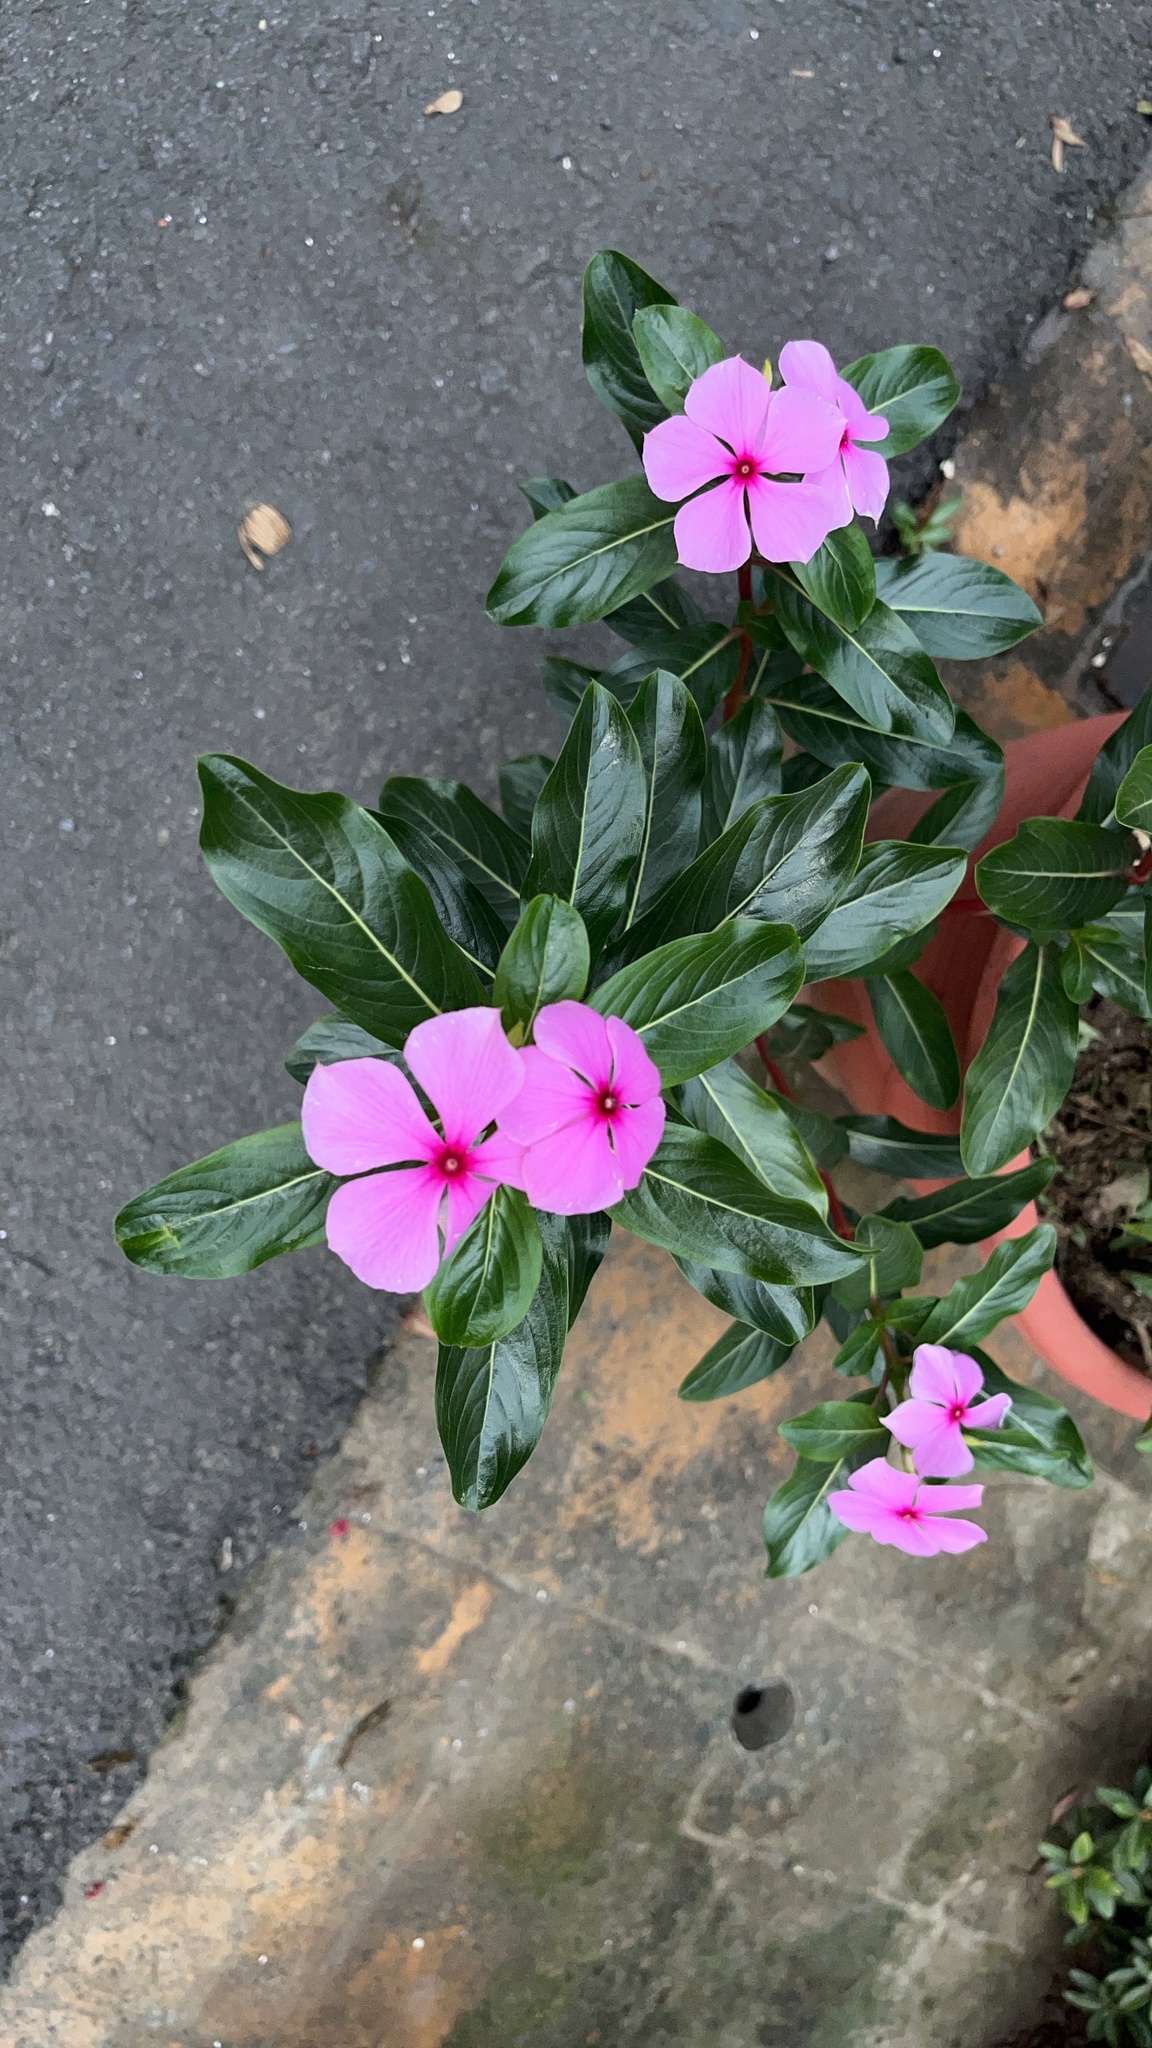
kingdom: Plantae
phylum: Tracheophyta
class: Magnoliopsida
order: Gentianales
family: Apocynaceae
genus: Catharanthus
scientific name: Catharanthus roseus
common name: Madagascar periwinkle
